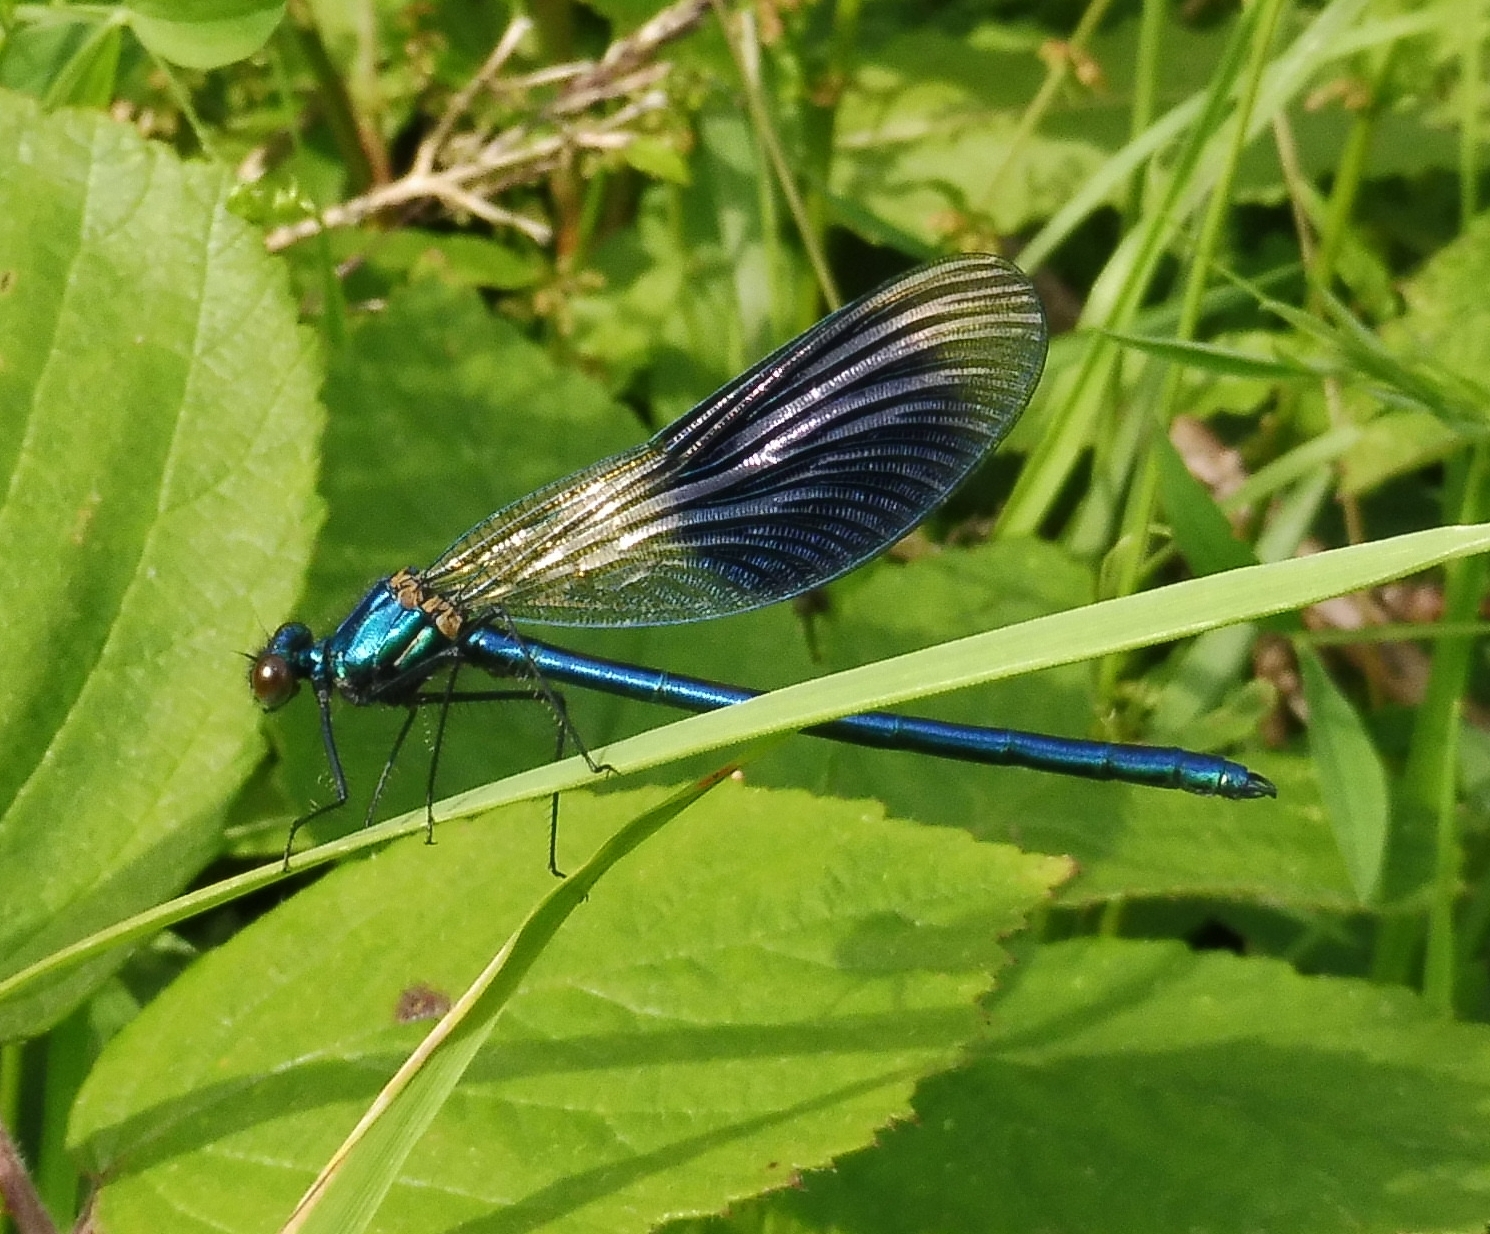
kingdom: Animalia
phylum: Arthropoda
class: Insecta
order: Odonata
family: Calopterygidae
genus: Calopteryx
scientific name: Calopteryx splendens
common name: Banded demoiselle
